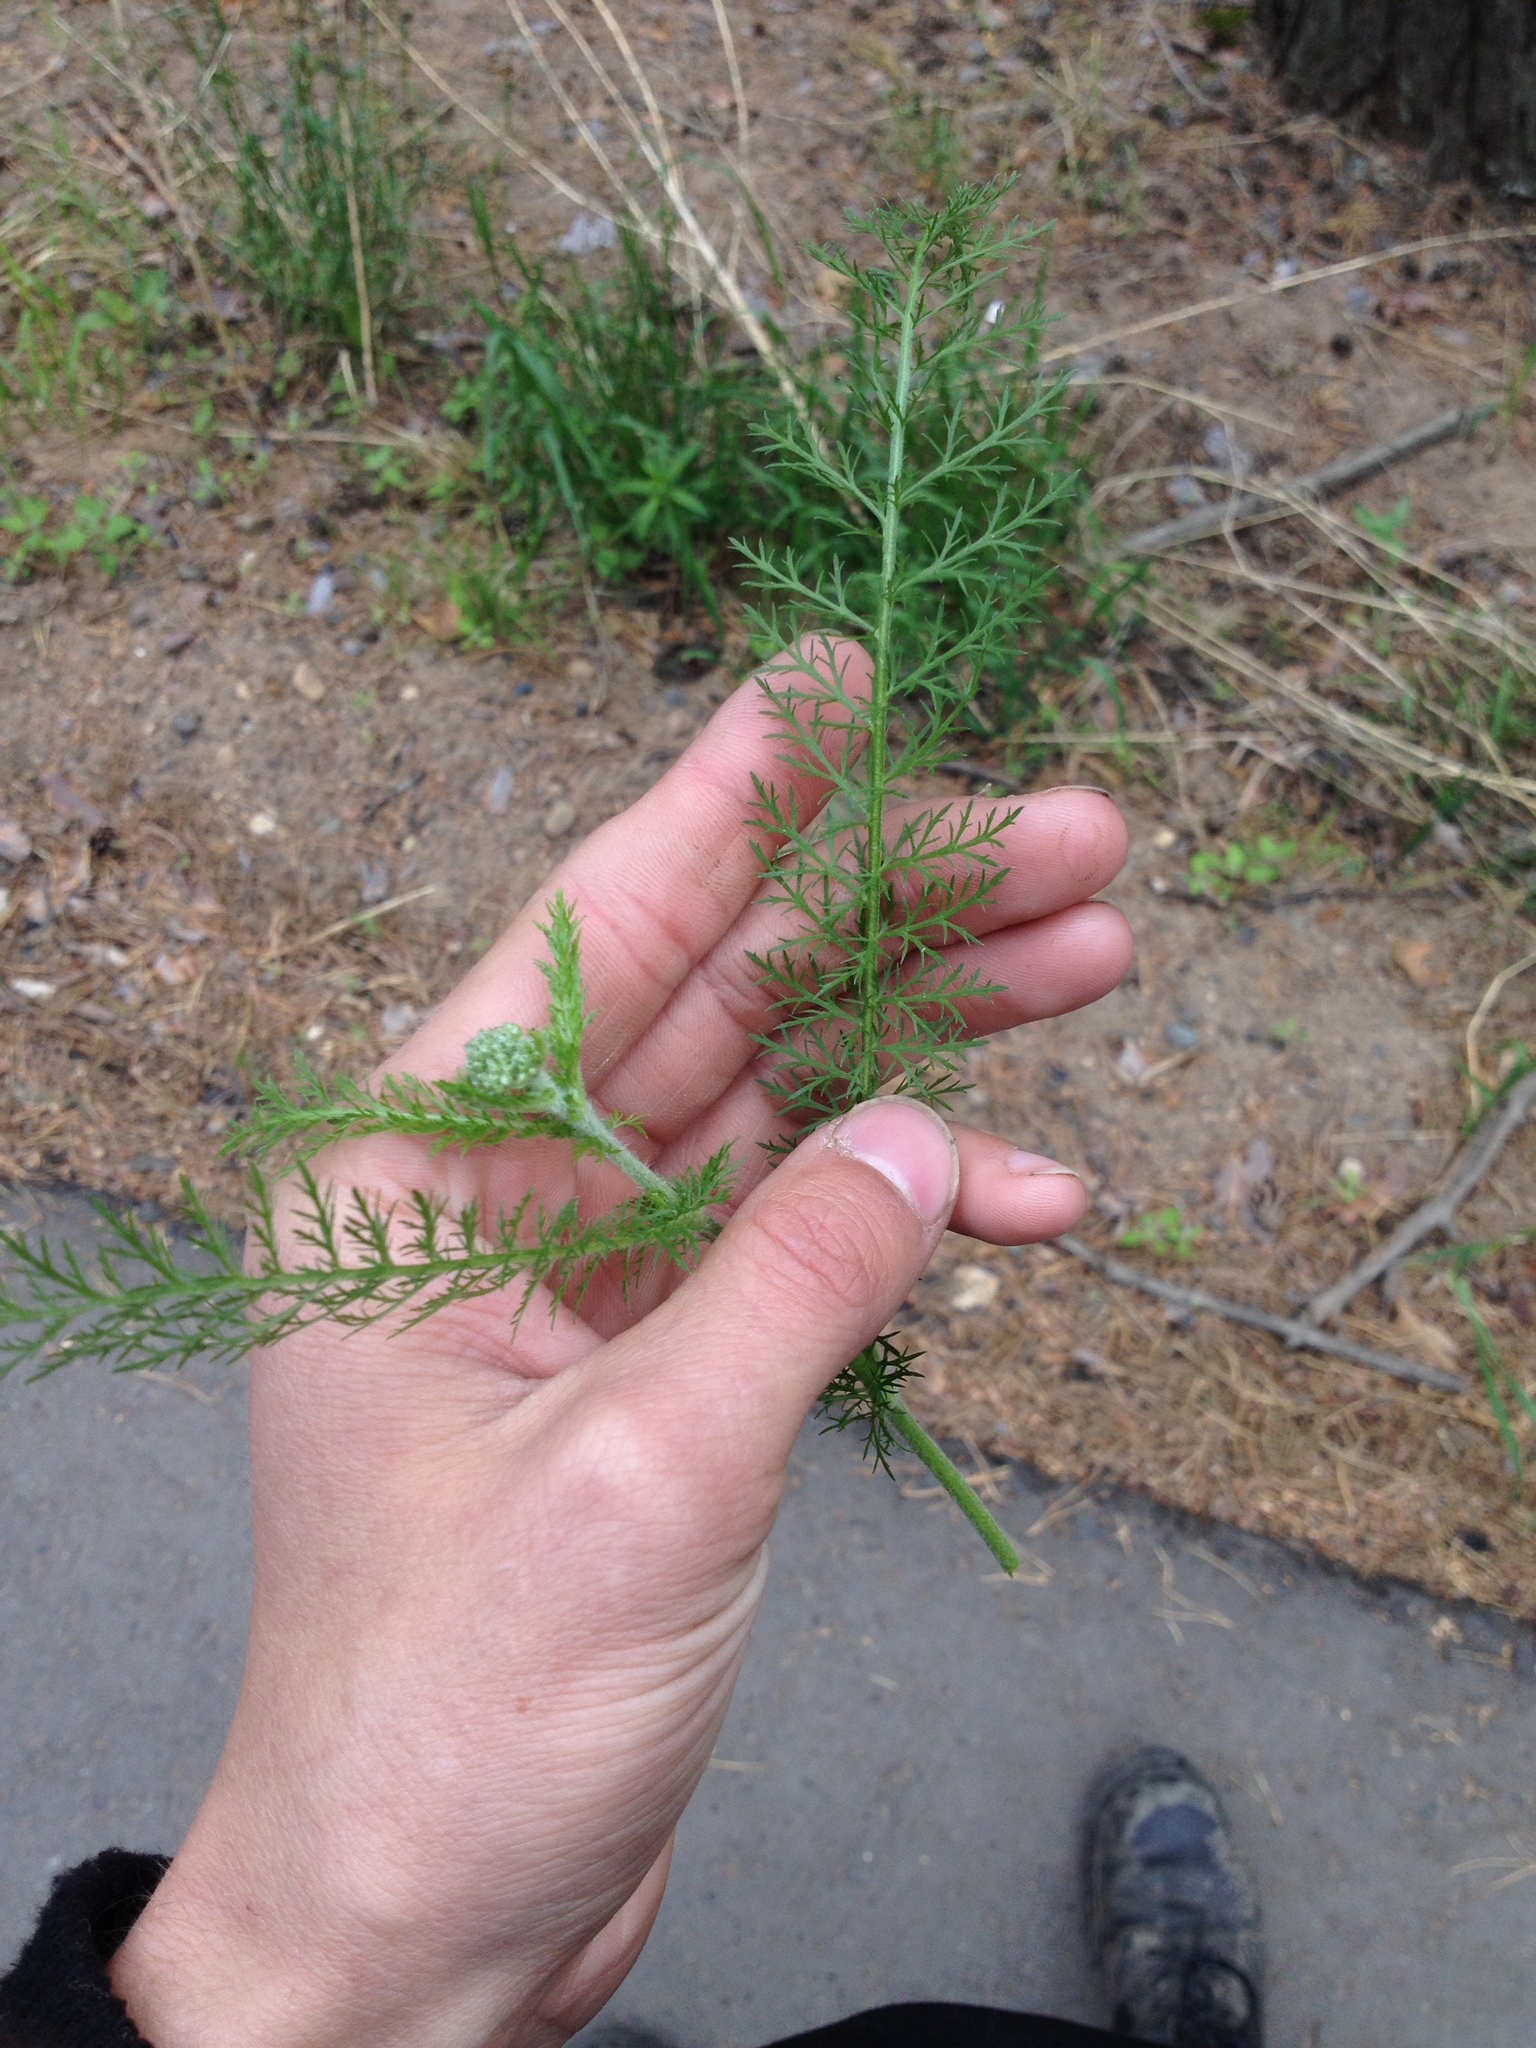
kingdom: Plantae
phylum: Tracheophyta
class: Magnoliopsida
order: Asterales
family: Asteraceae
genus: Achillea
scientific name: Achillea millefolium
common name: Yarrow
